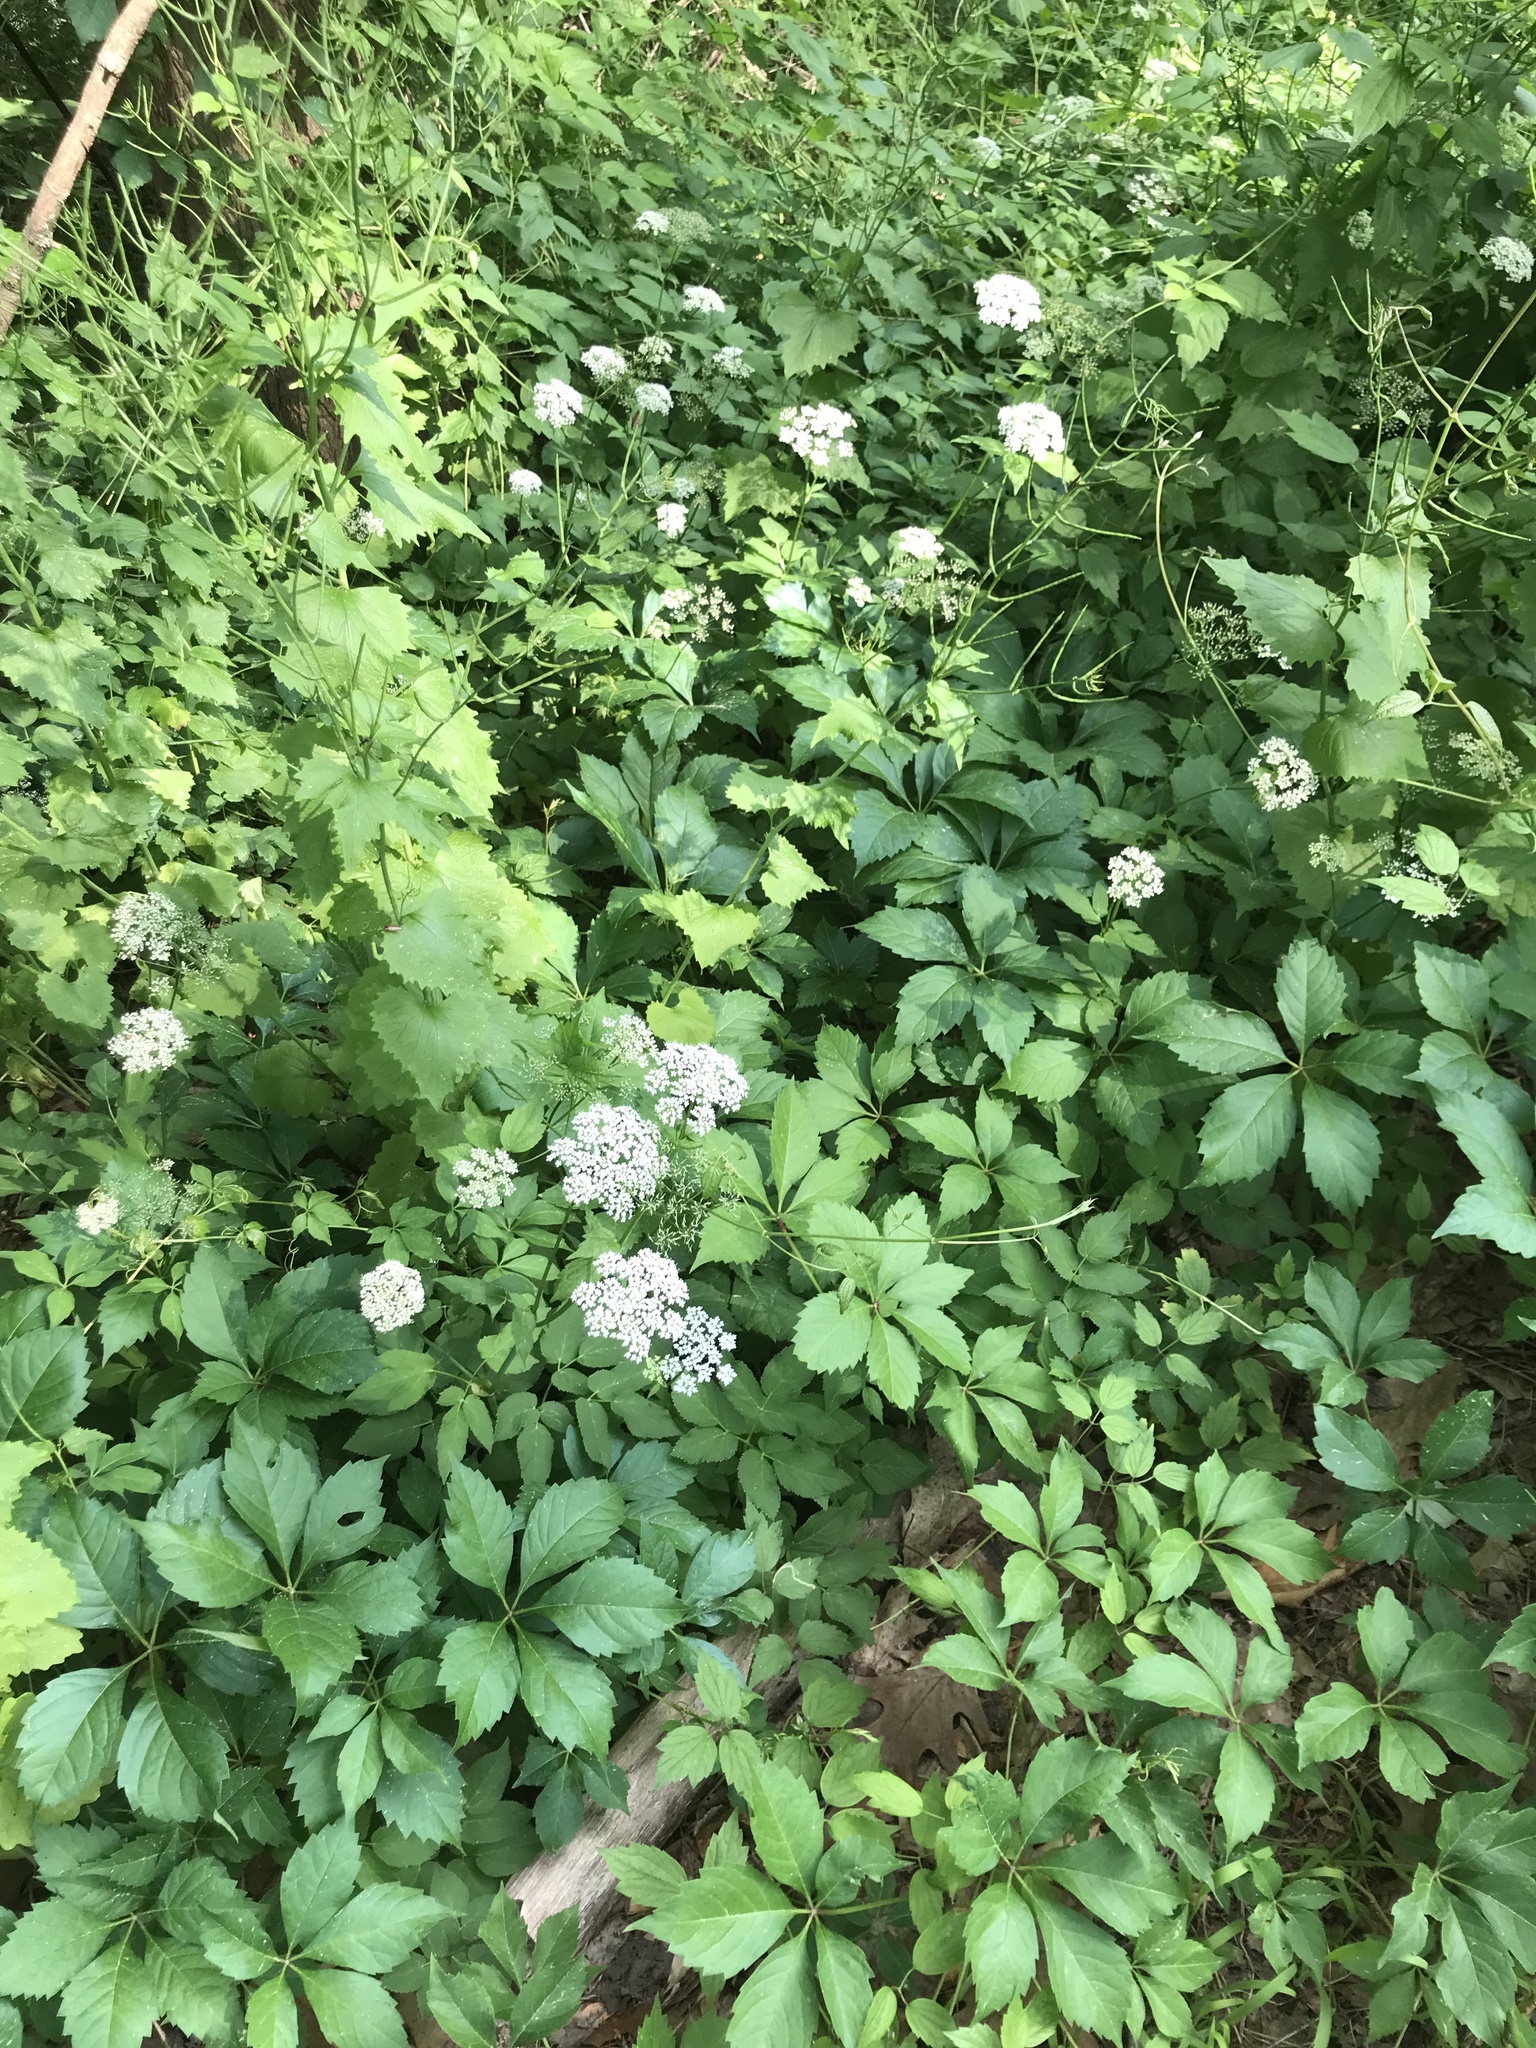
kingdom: Plantae
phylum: Tracheophyta
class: Magnoliopsida
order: Apiales
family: Apiaceae
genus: Aegopodium
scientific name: Aegopodium podagraria
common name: Ground-elder
